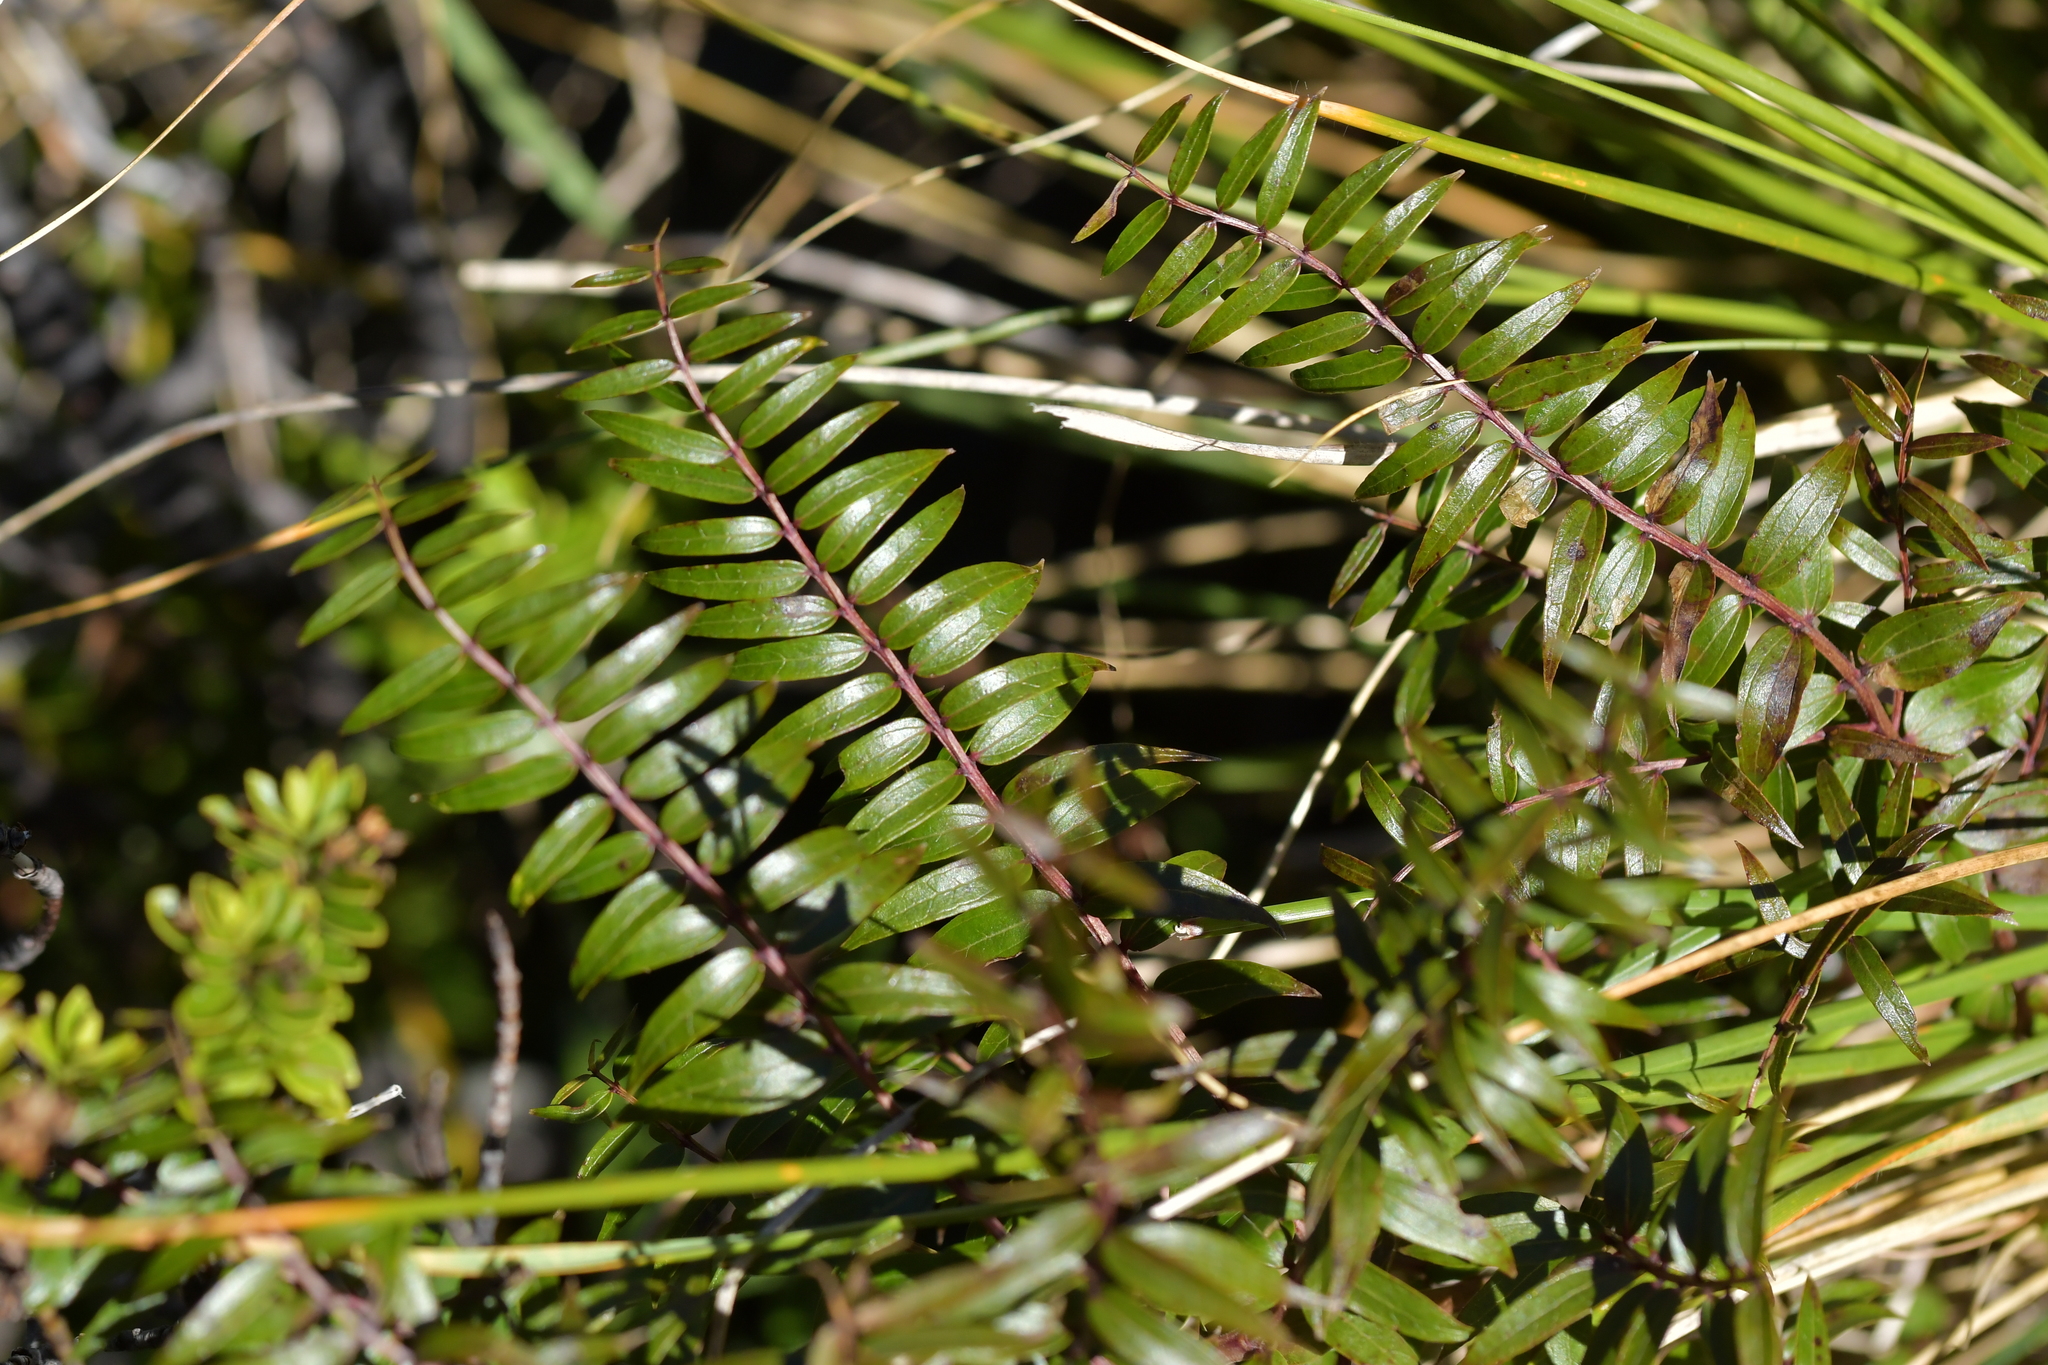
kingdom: Plantae
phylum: Tracheophyta
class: Magnoliopsida
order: Cucurbitales
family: Coriariaceae
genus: Coriaria
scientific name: Coriaria plumosa
